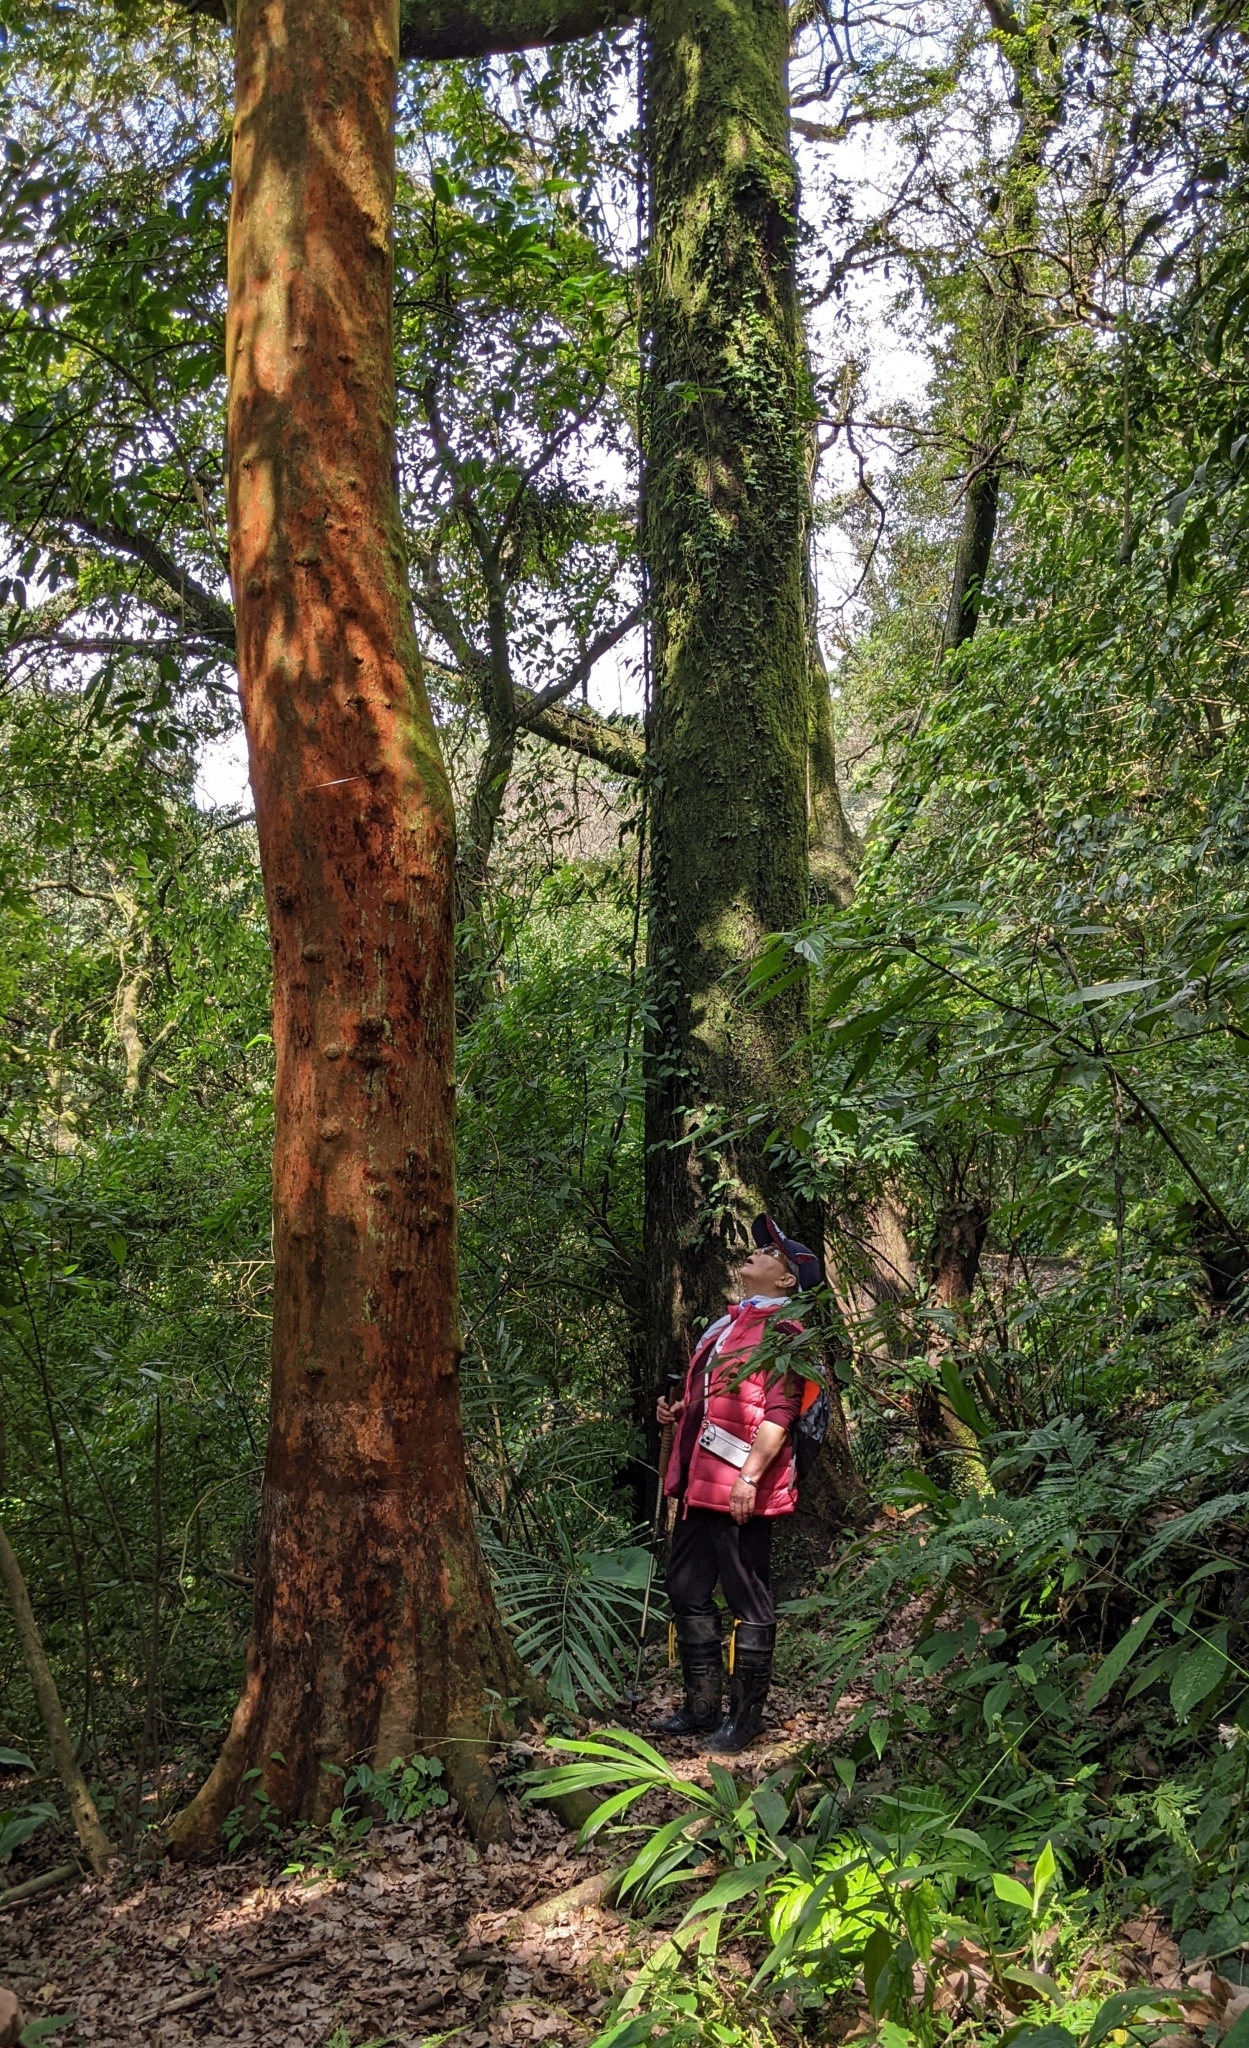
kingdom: Plantae
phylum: Tracheophyta
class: Magnoliopsida
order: Rosales
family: Rosaceae
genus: Prunus
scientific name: Prunus zippeliana
